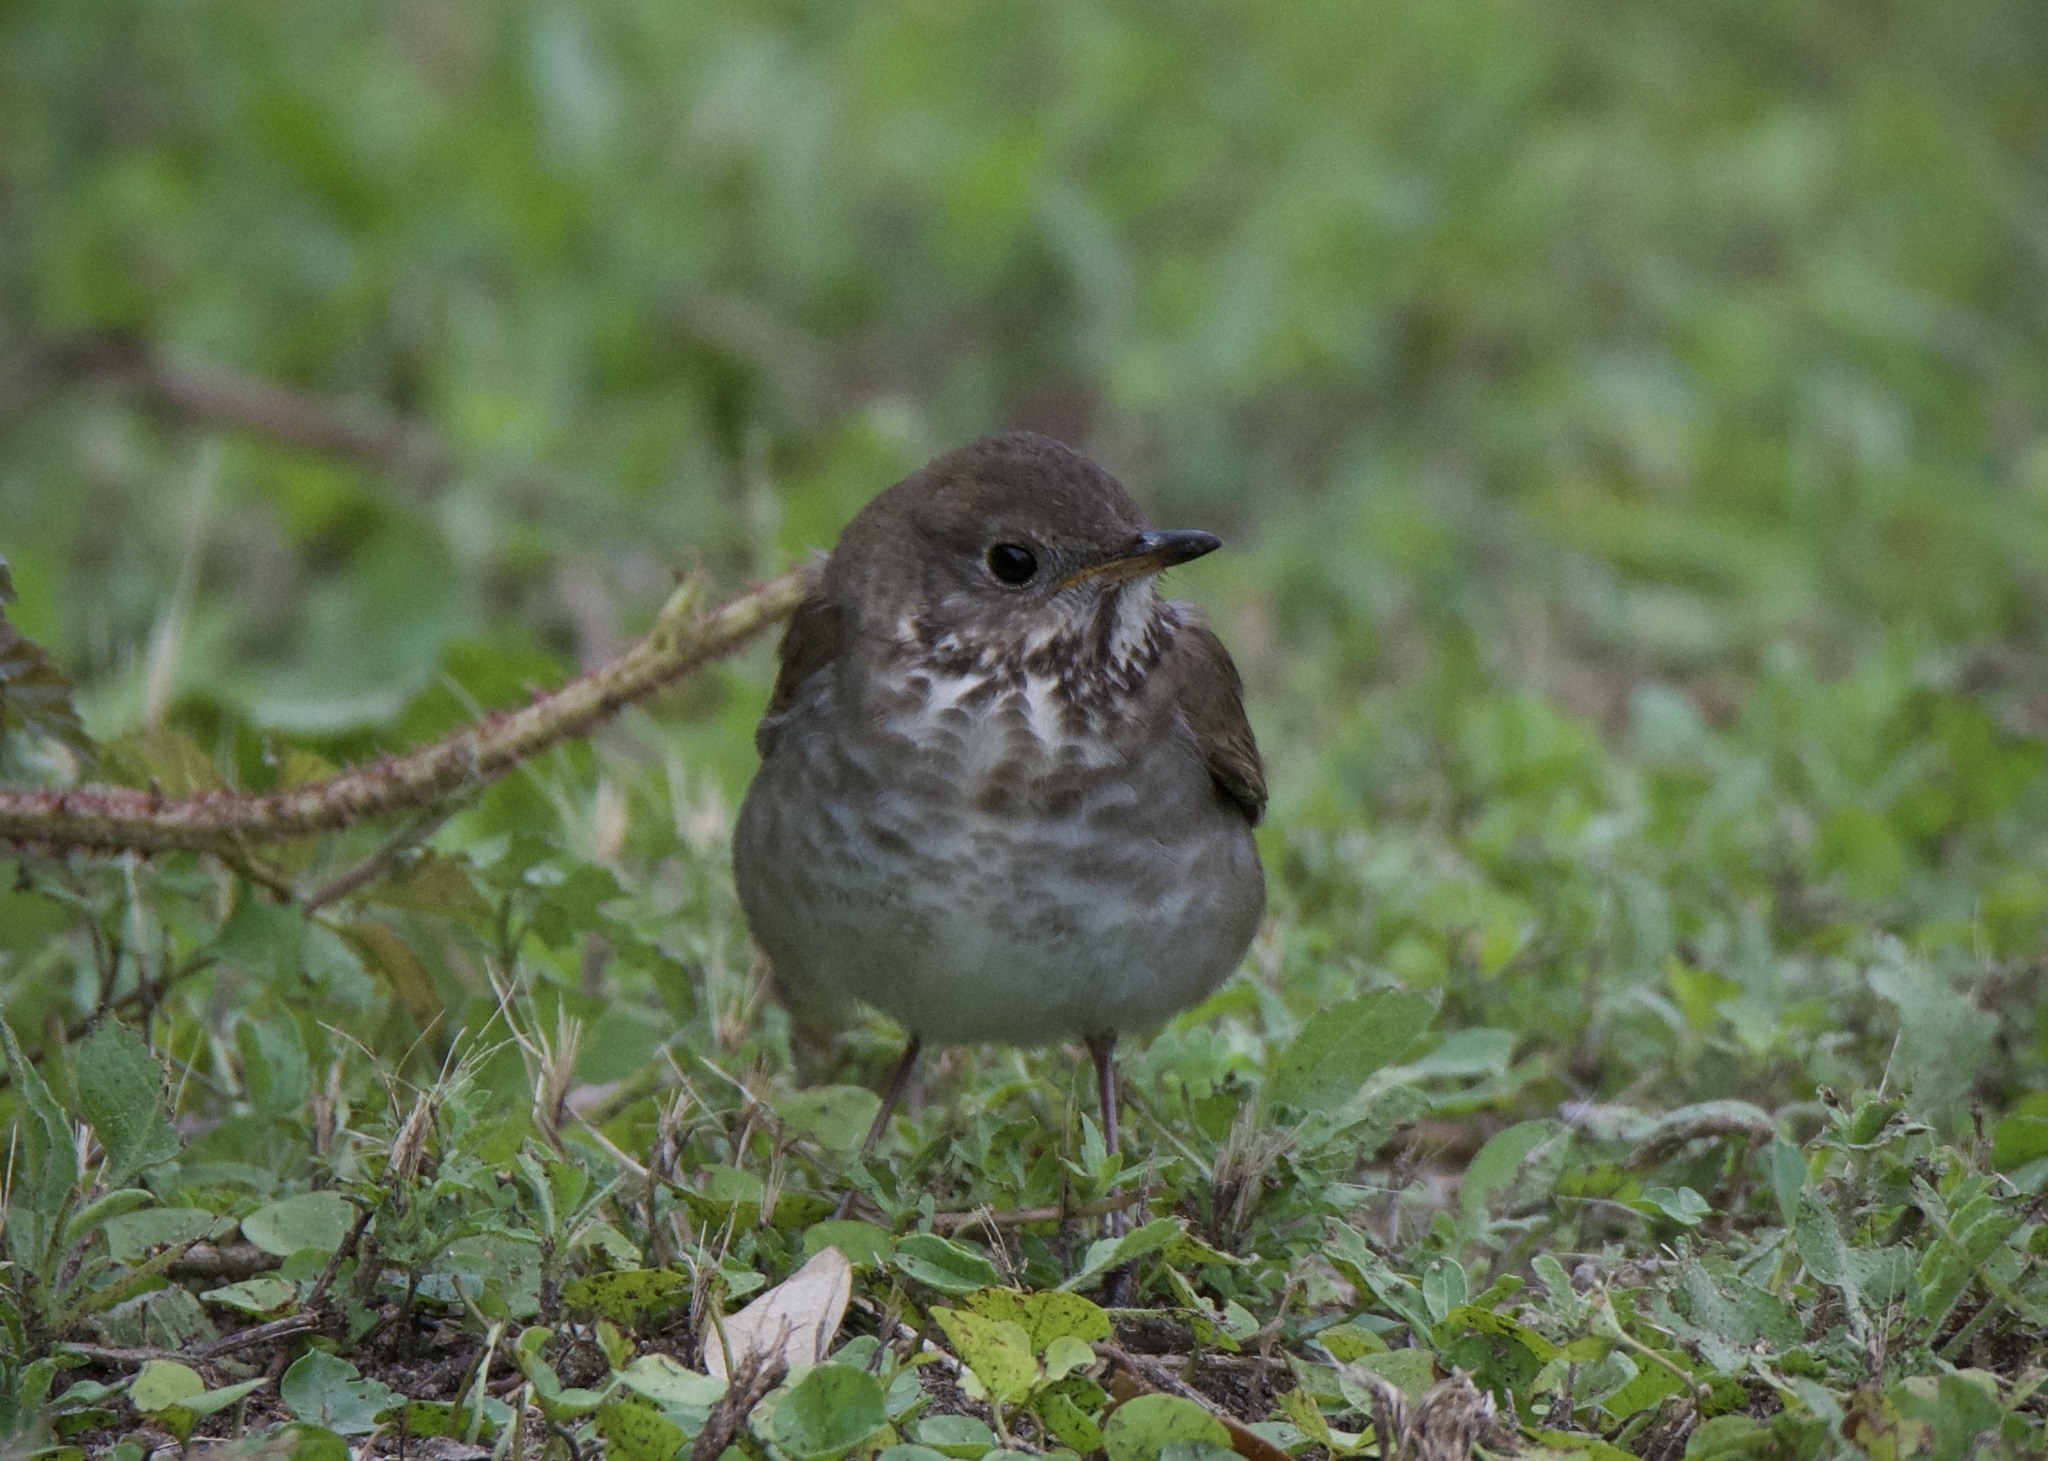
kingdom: Animalia
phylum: Chordata
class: Aves
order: Passeriformes
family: Turdidae
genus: Catharus
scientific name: Catharus minimus
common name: Grey-cheeked thrush
